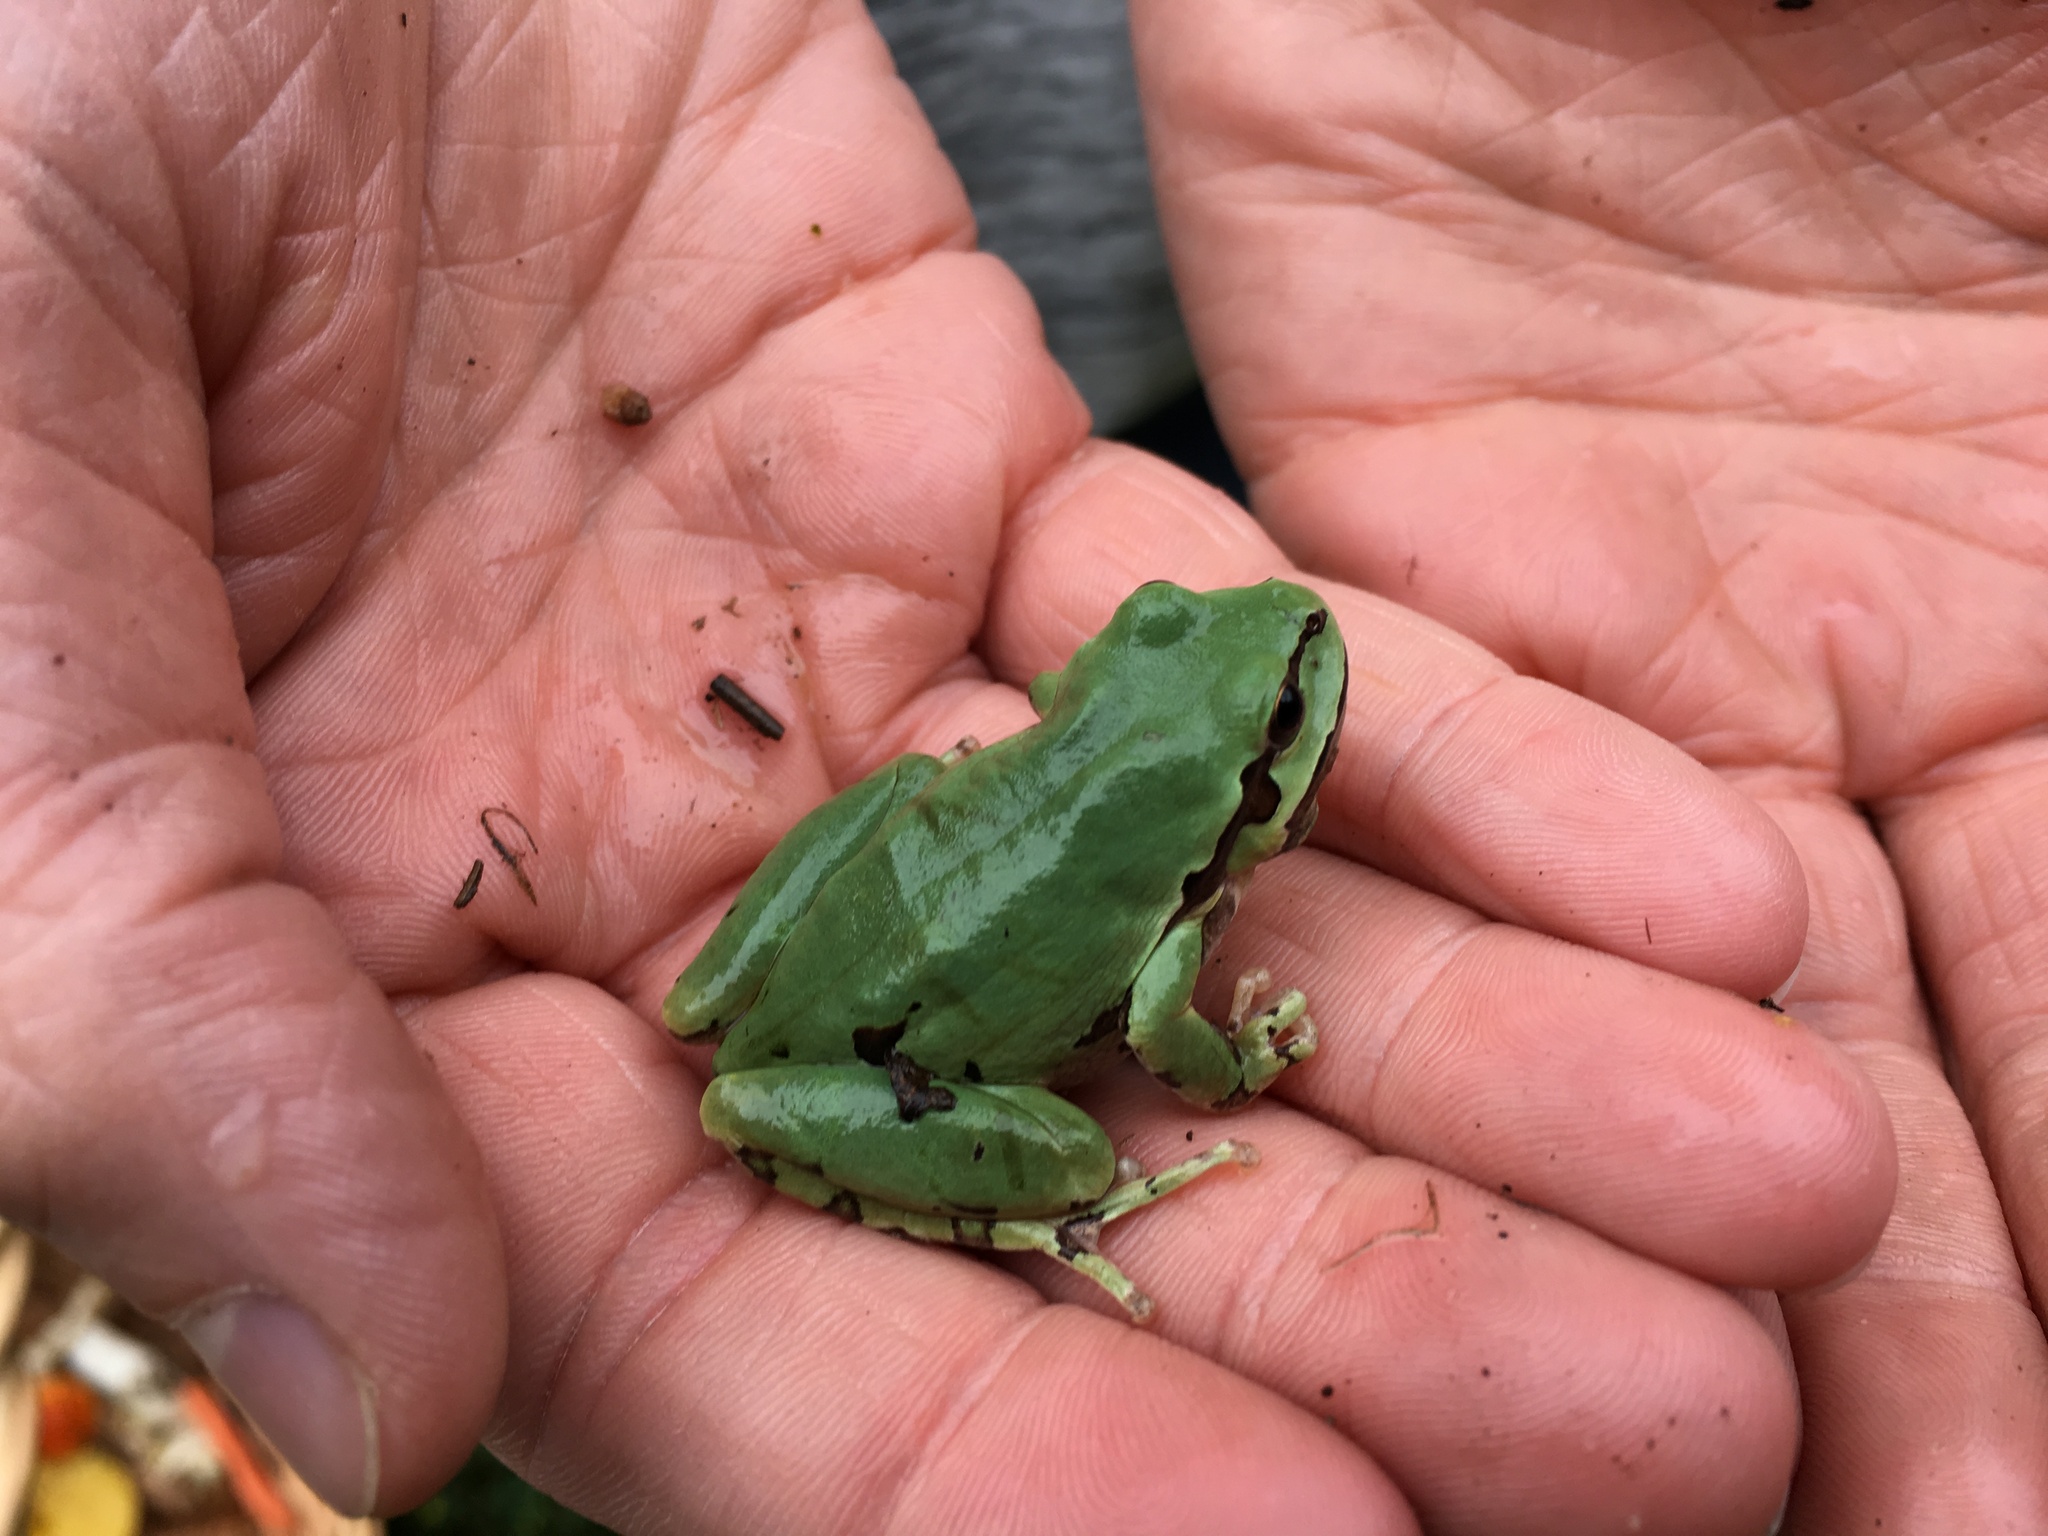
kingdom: Animalia
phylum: Chordata
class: Amphibia
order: Anura
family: Hylidae
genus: Dryophytes
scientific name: Dryophytes wrightorum
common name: Arizona treefrog
